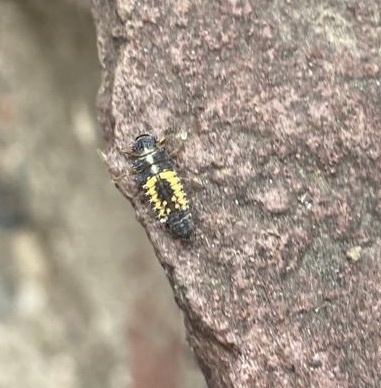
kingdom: Animalia
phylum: Arthropoda
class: Insecta
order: Coleoptera
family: Coccinellidae
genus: Harmonia
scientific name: Harmonia axyridis
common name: Harlequin ladybird
